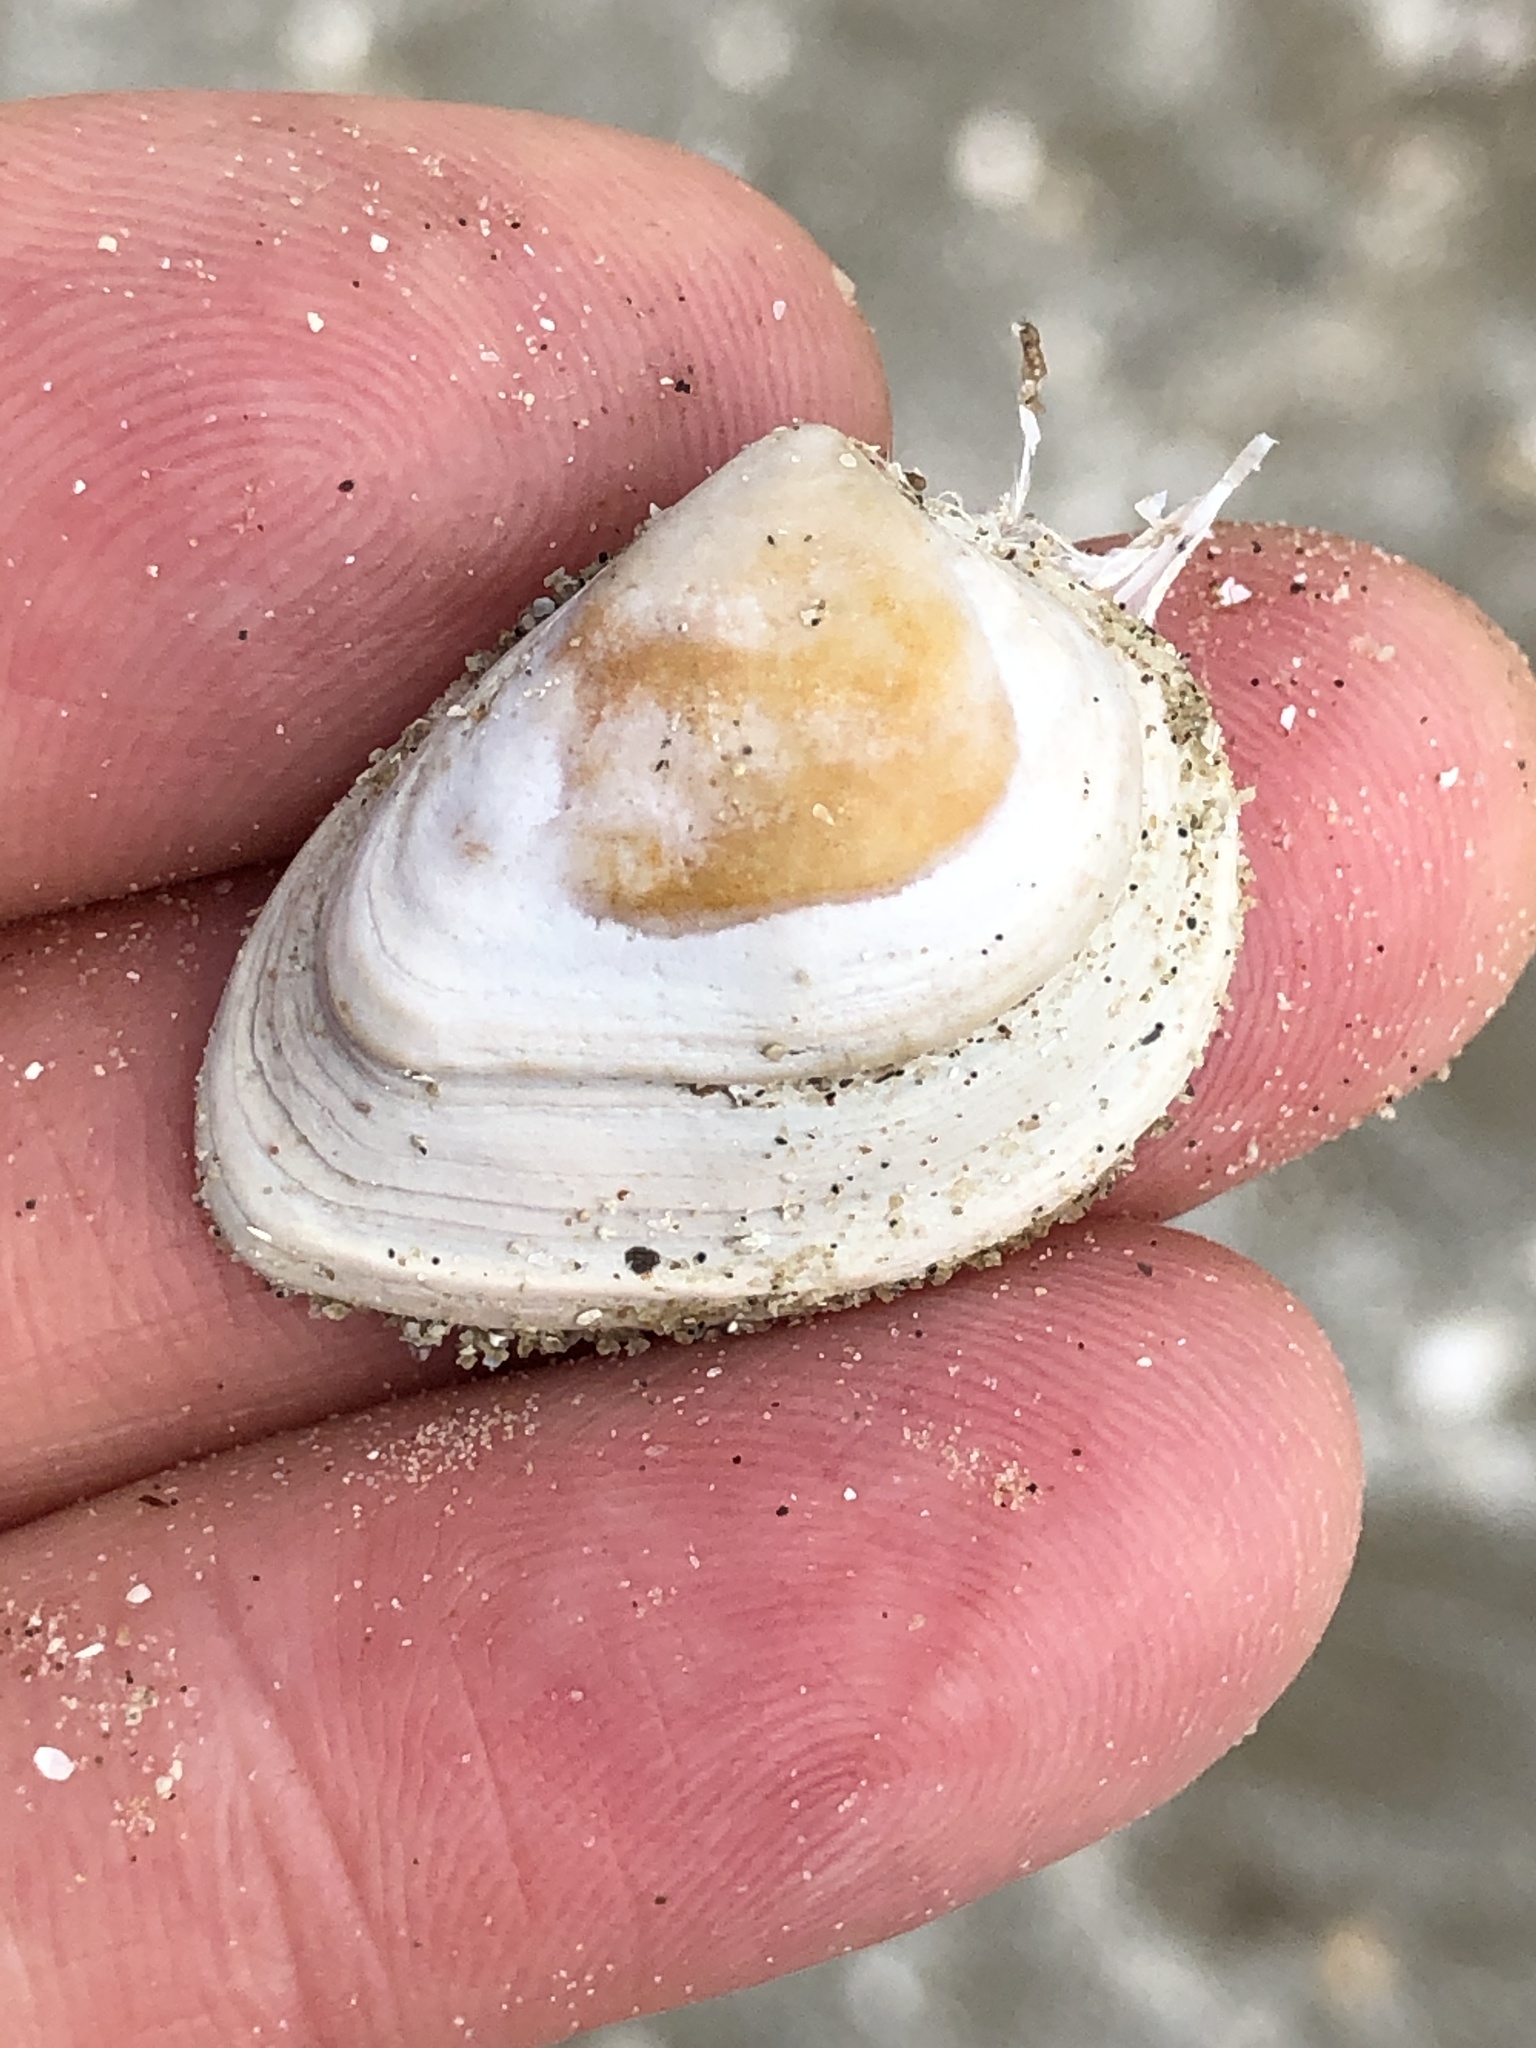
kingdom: Animalia
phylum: Mollusca
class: Bivalvia
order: Venerida
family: Mactridae
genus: Rangia
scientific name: Rangia flexuosa
